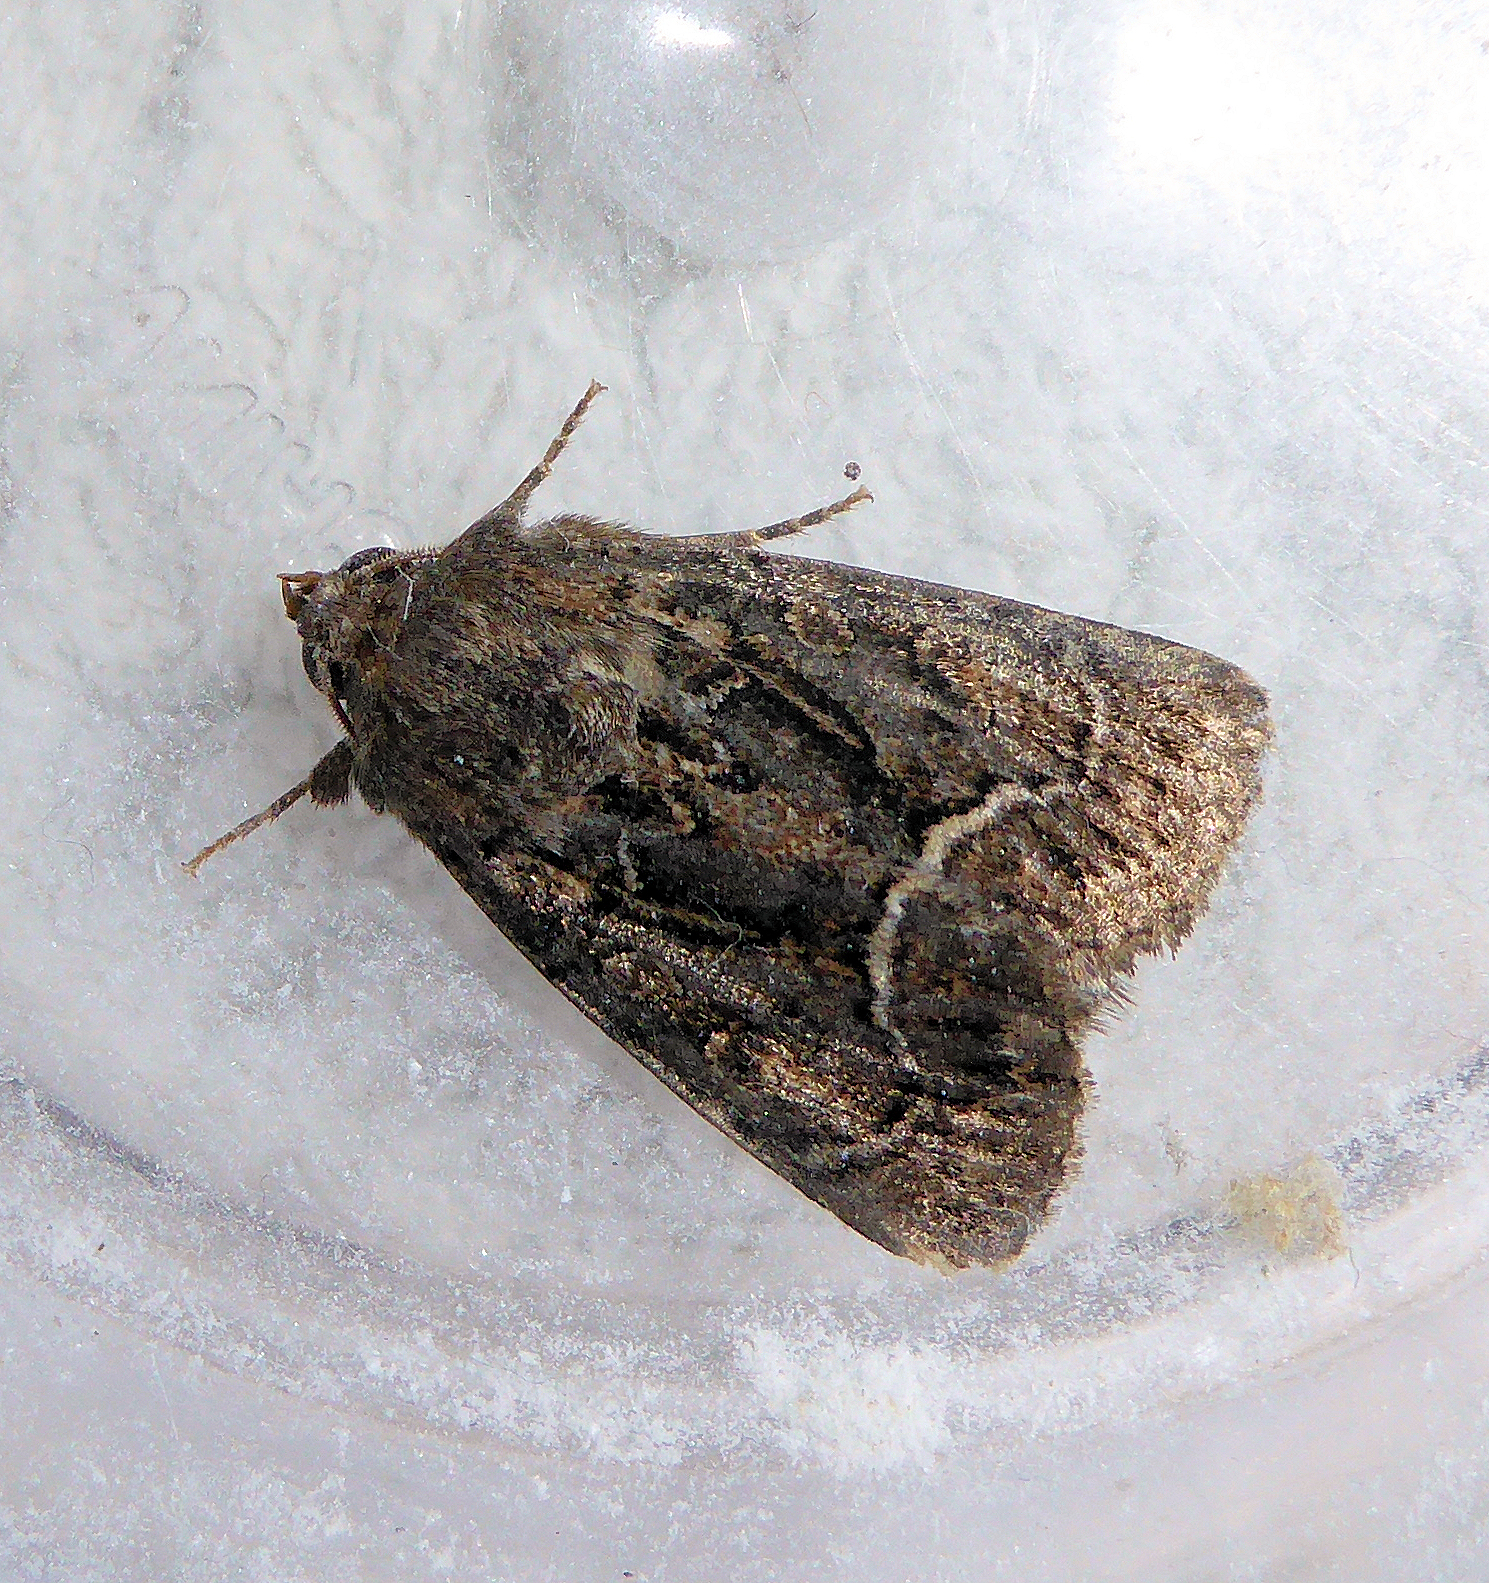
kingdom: Animalia
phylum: Arthropoda
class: Insecta
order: Lepidoptera
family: Noctuidae
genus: Thalpophila
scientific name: Thalpophila matura
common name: Straw underwing
